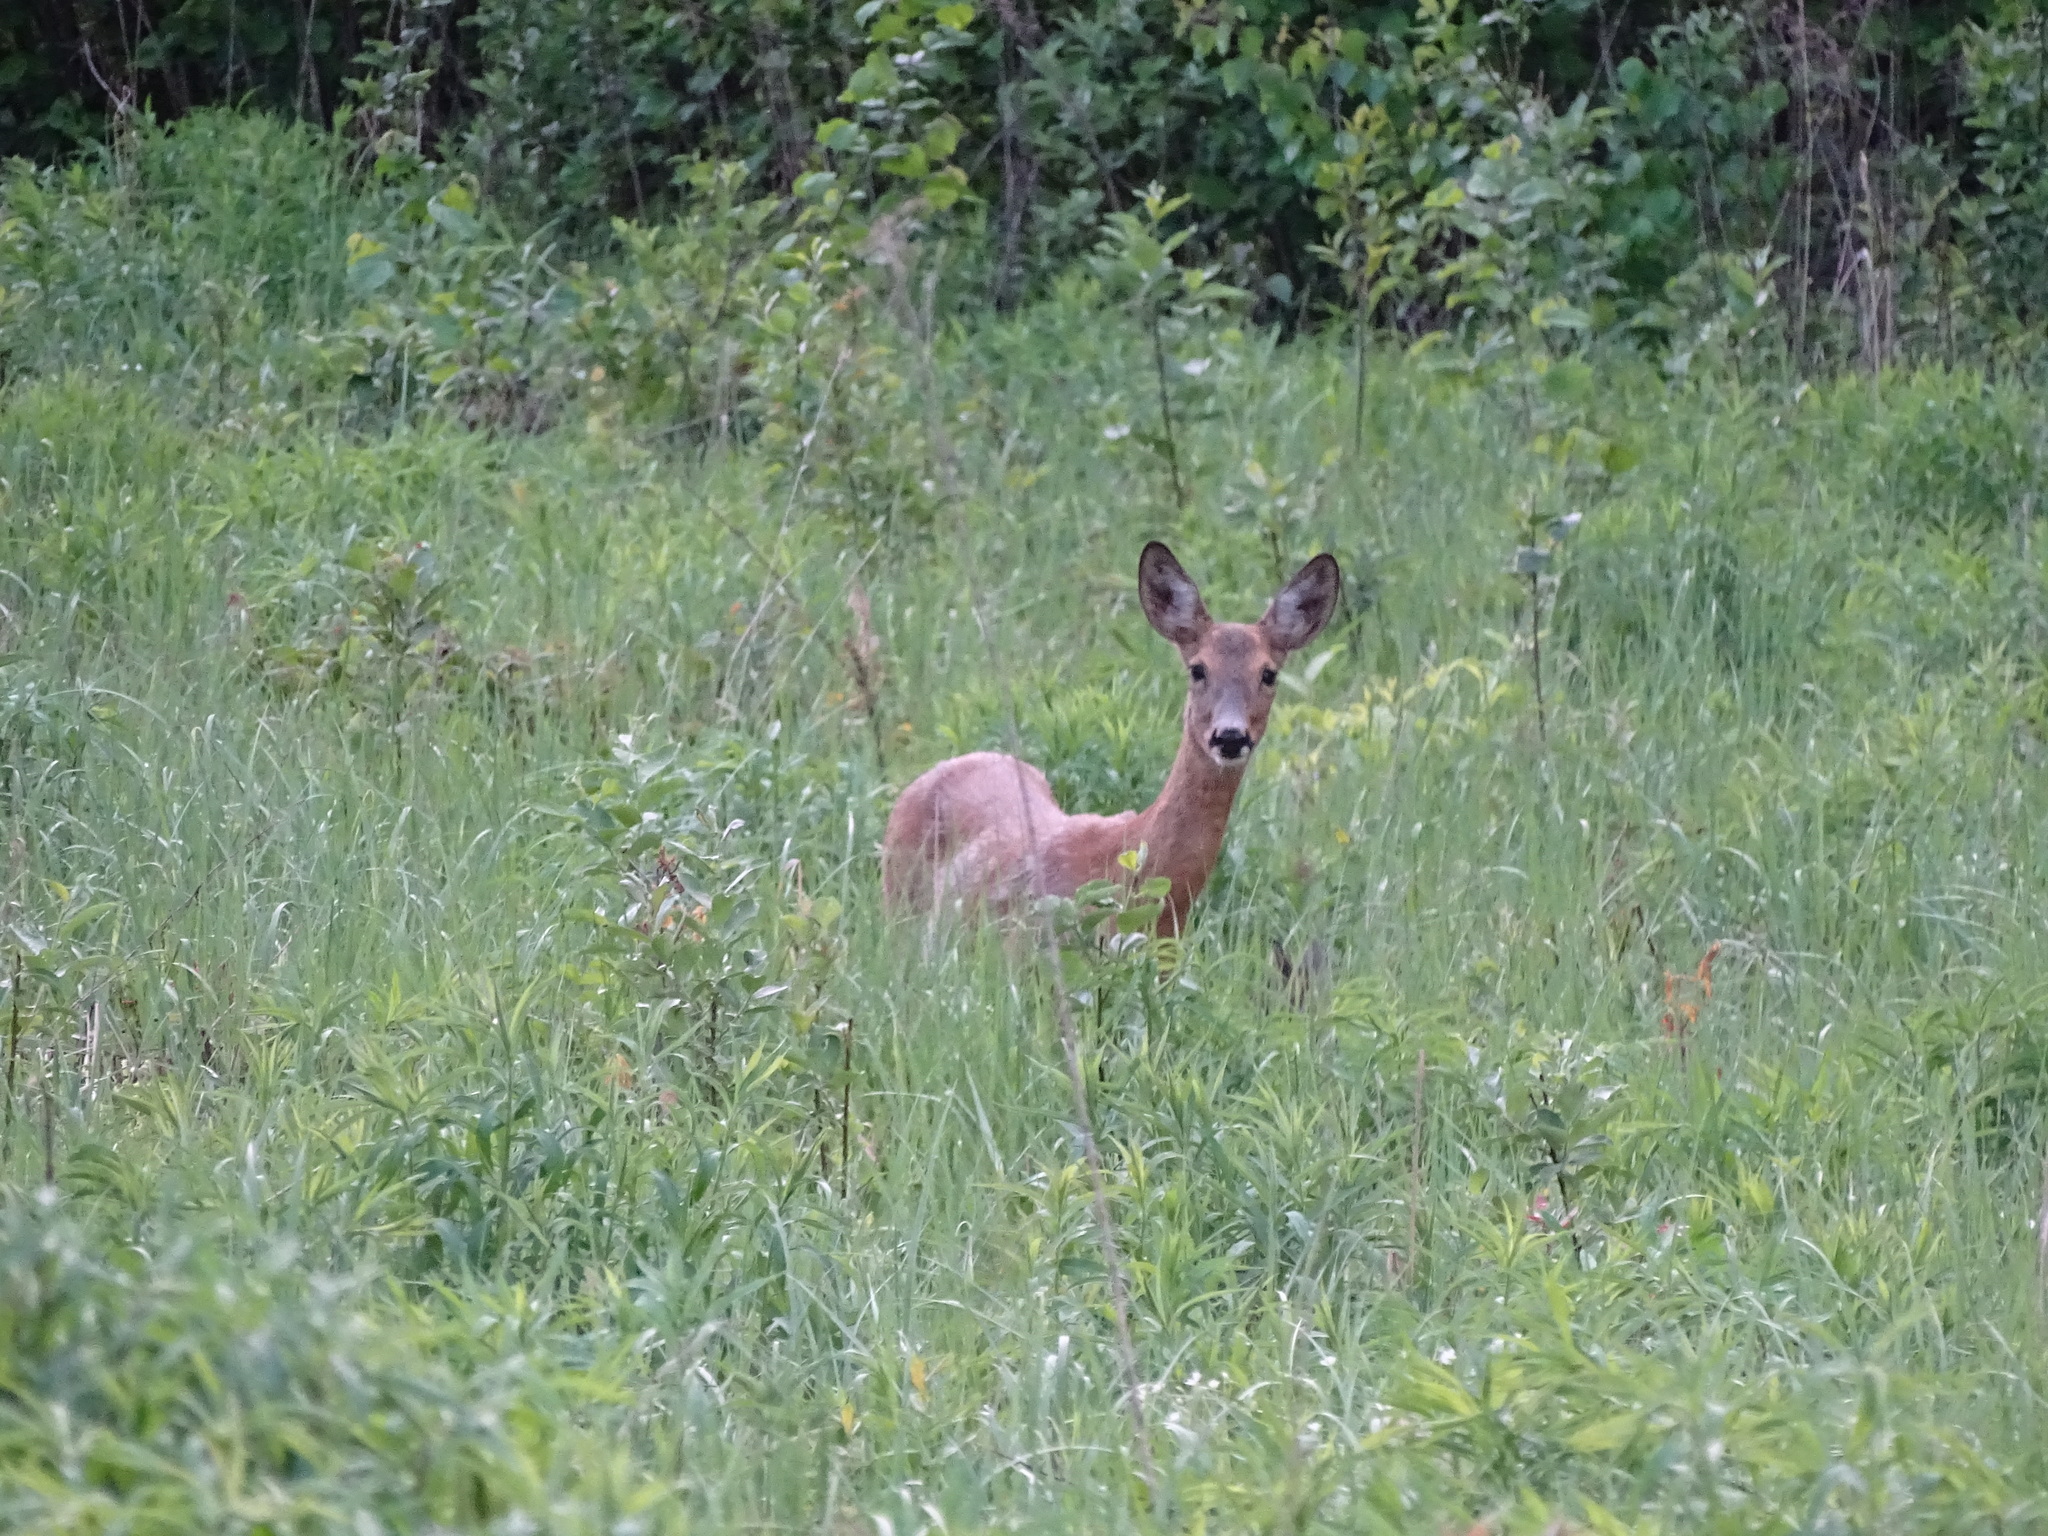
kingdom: Animalia
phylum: Chordata
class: Mammalia
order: Artiodactyla
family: Cervidae
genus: Capreolus
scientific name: Capreolus capreolus
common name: Western roe deer
